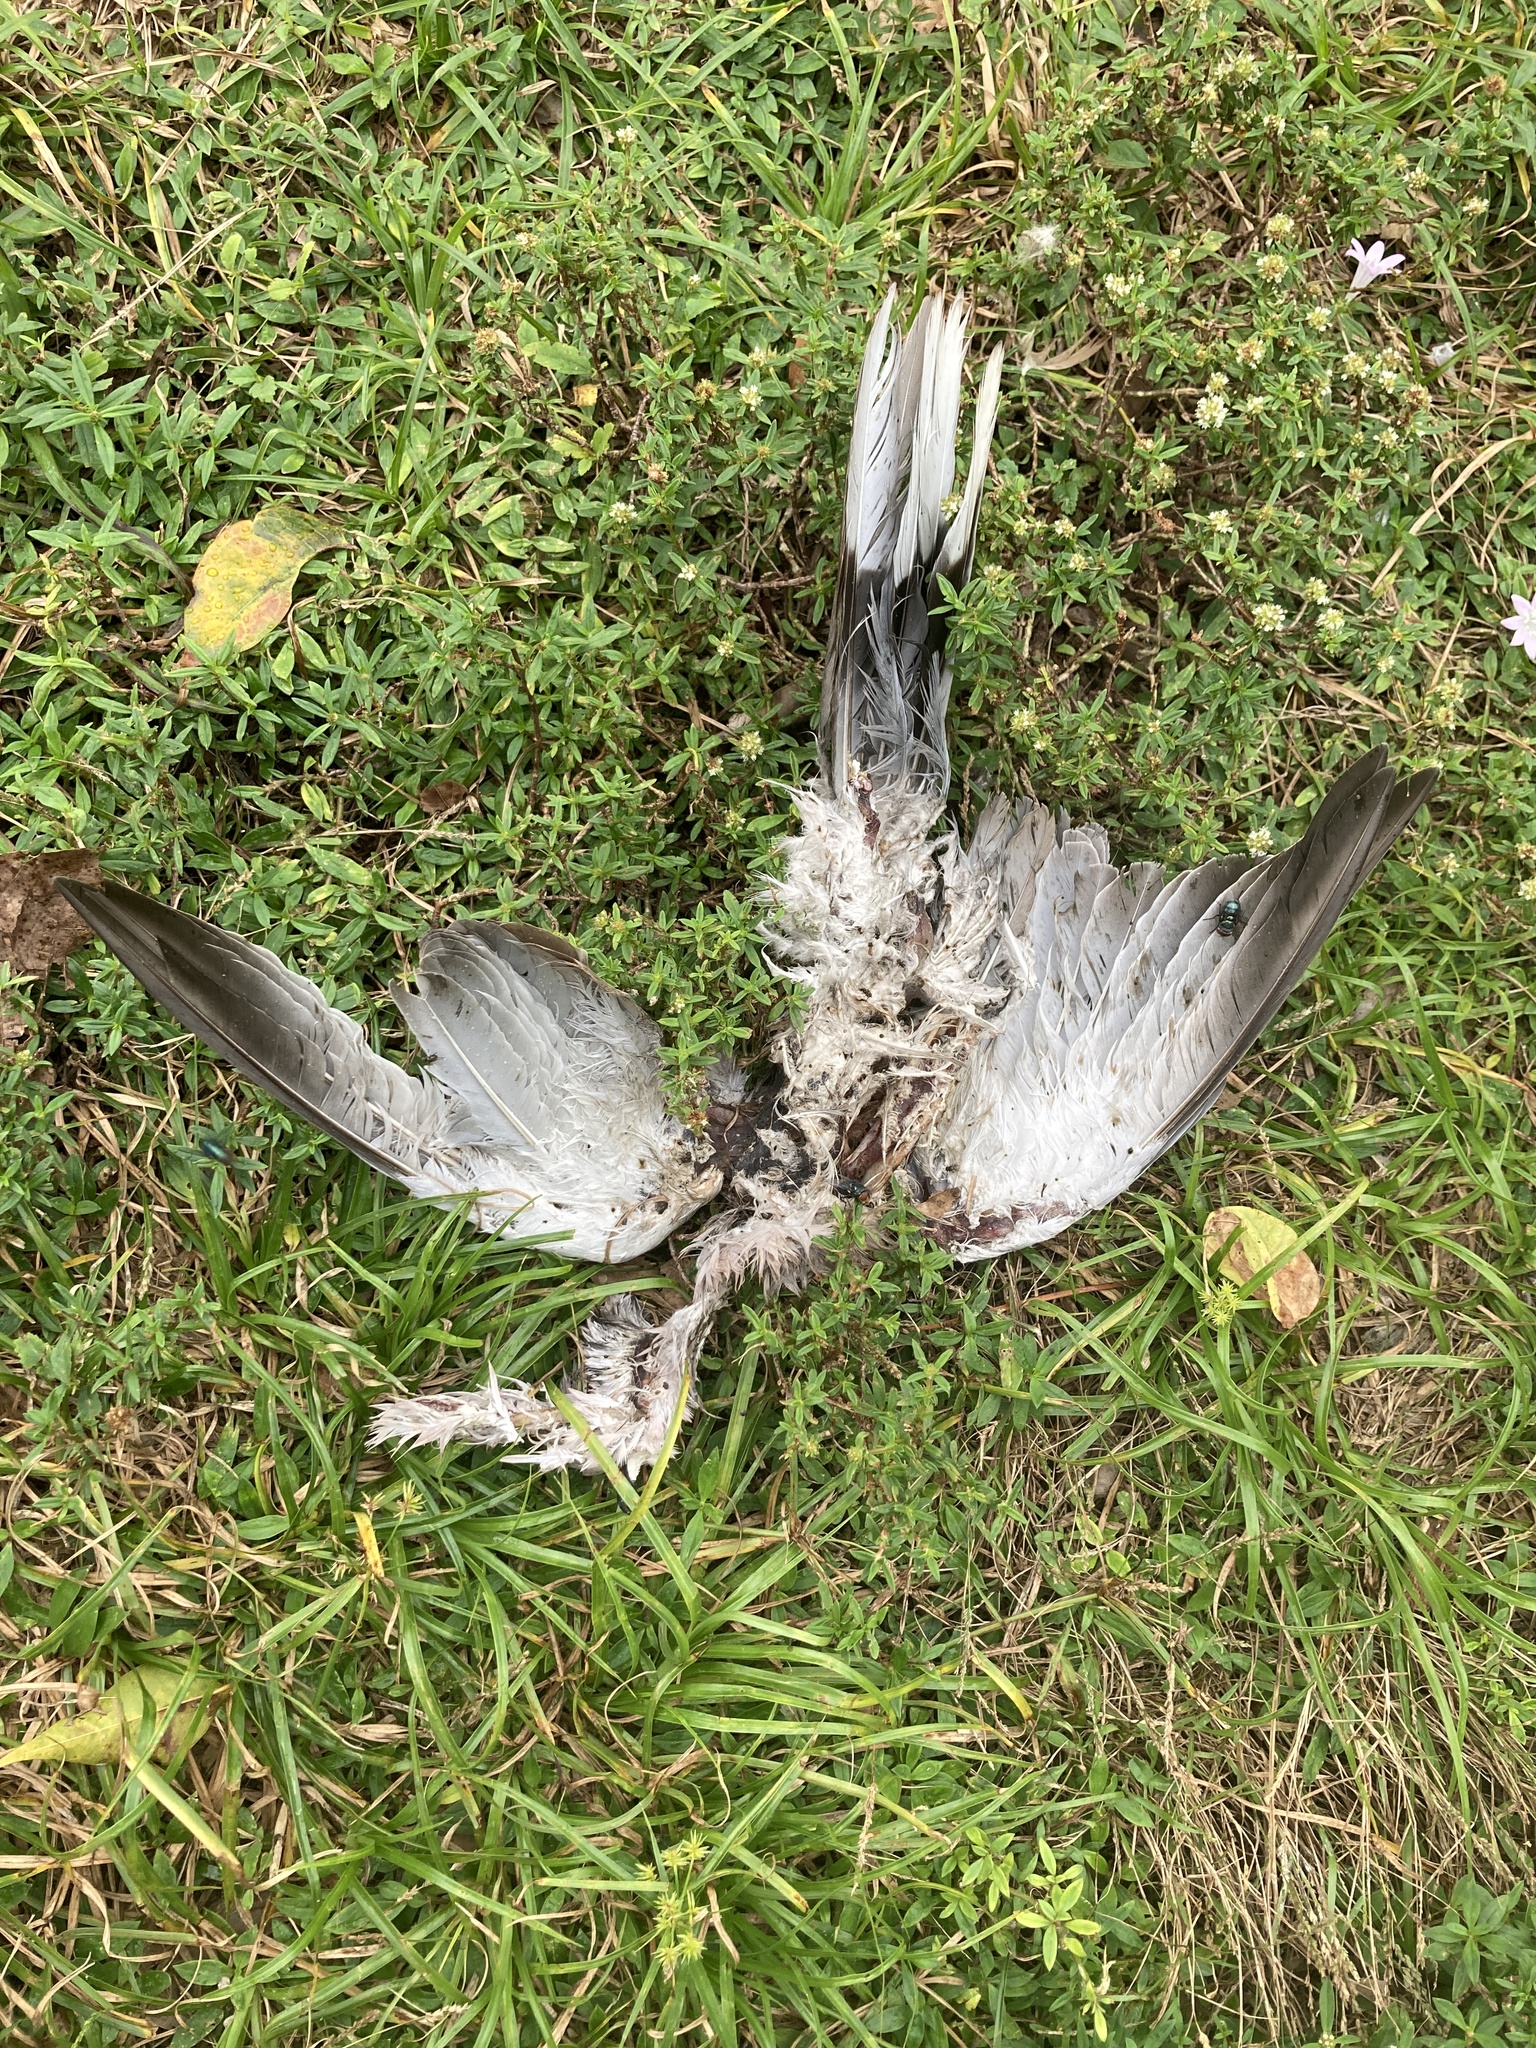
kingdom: Animalia
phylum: Chordata
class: Aves
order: Columbiformes
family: Columbidae
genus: Streptopelia
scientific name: Streptopelia decaocto
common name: Eurasian collared dove
